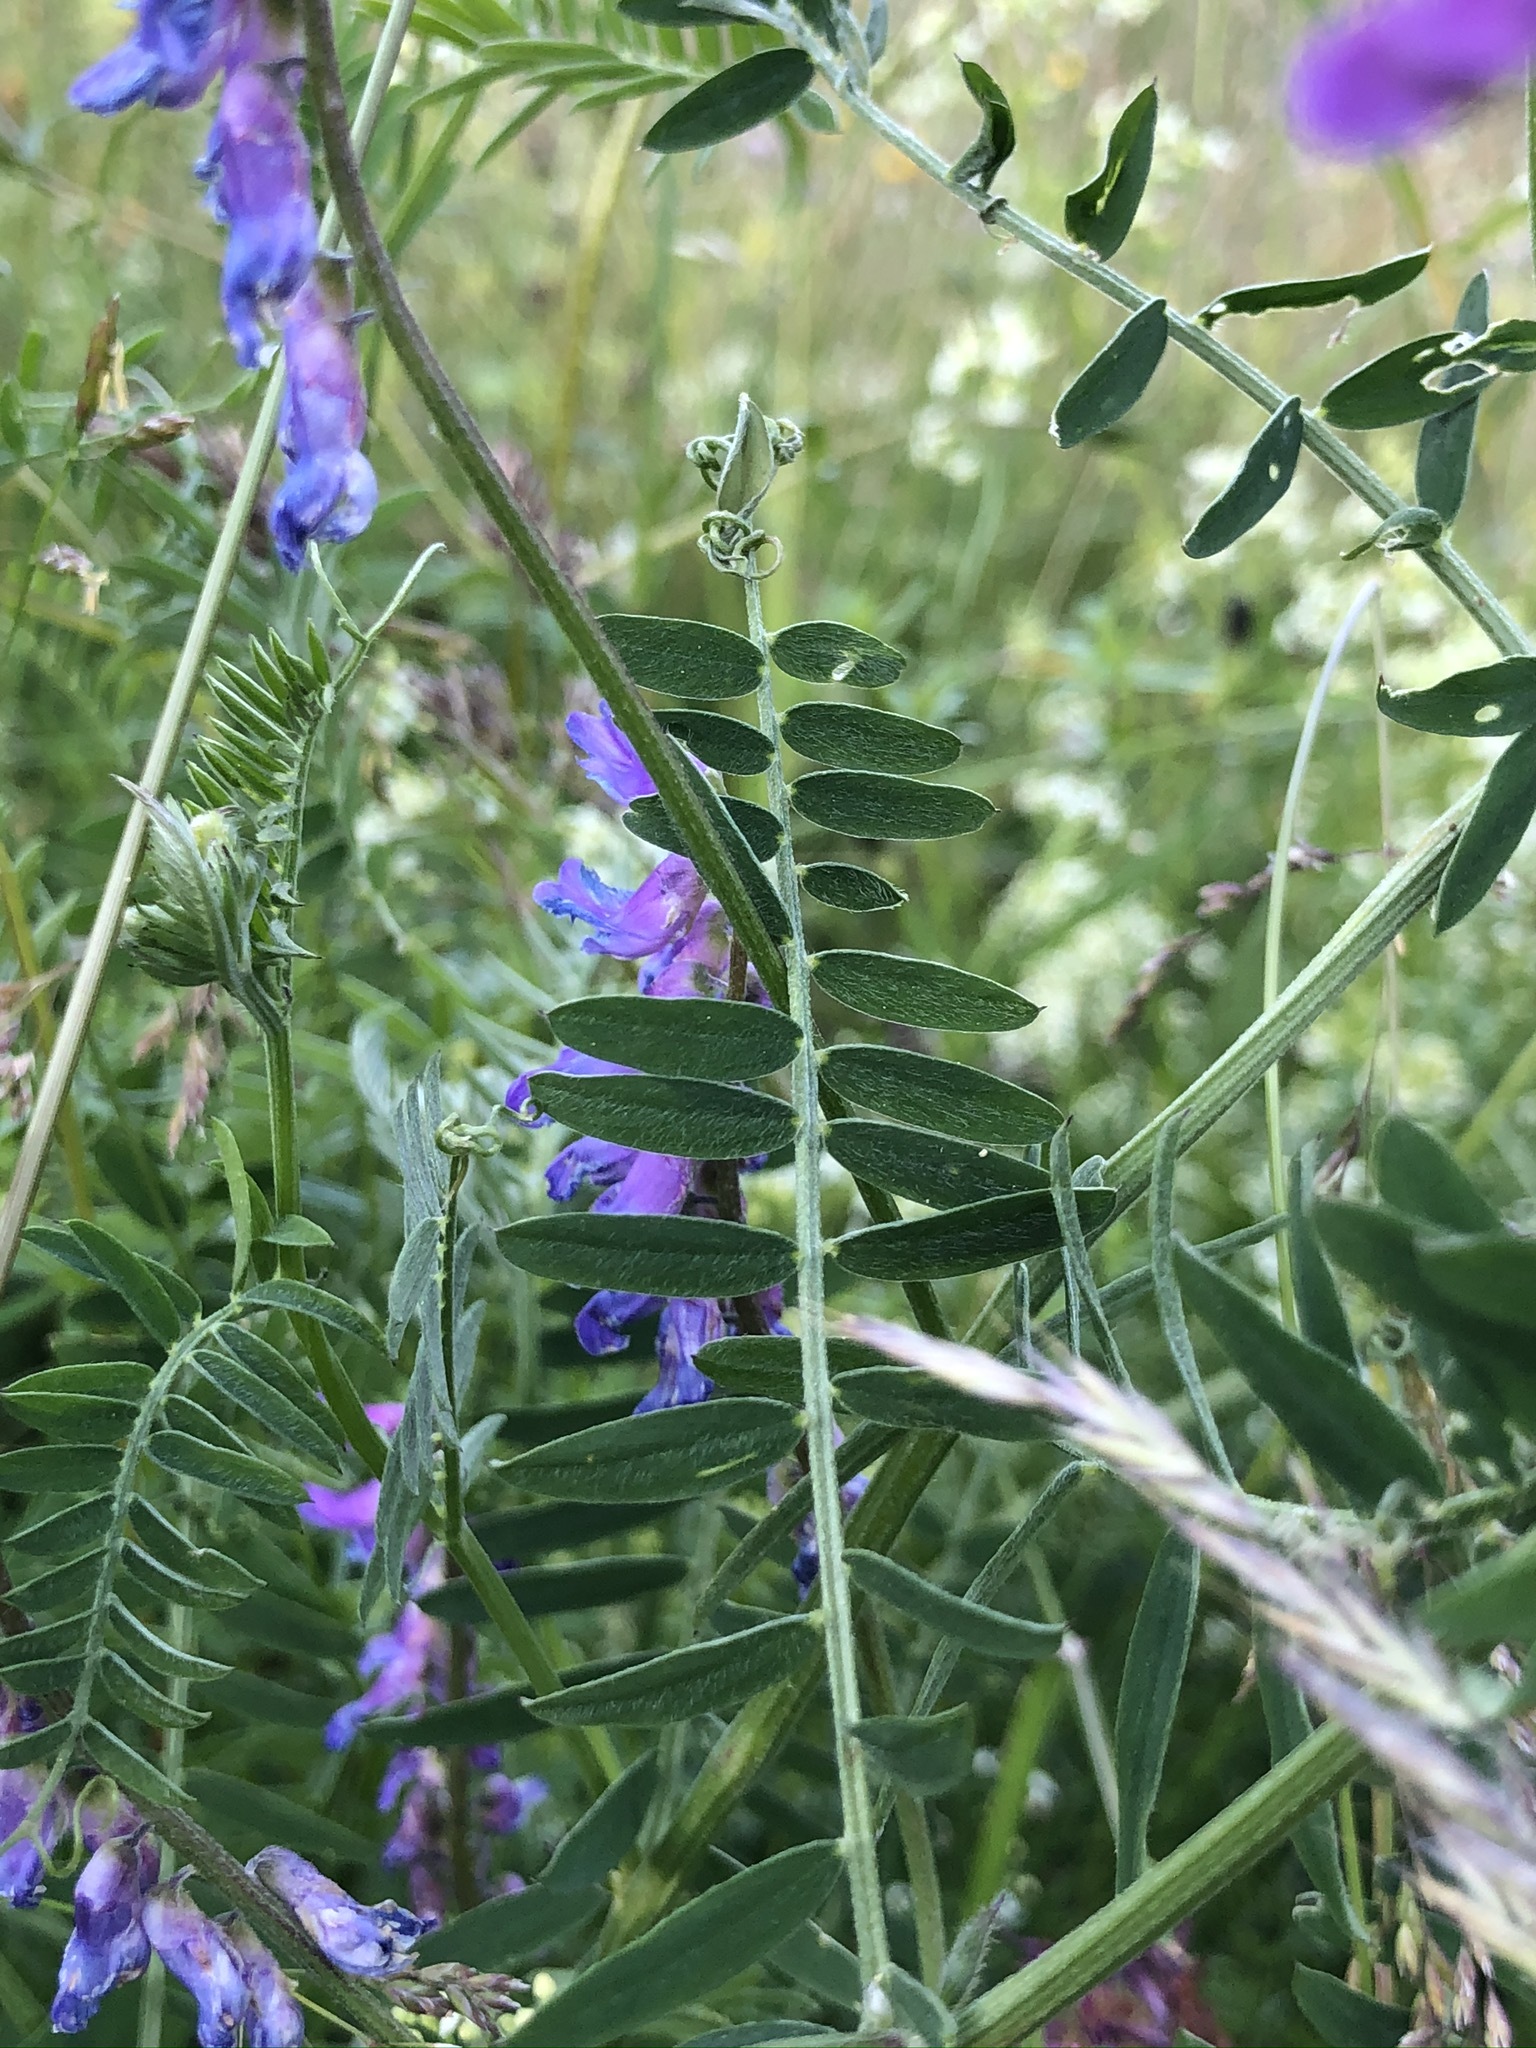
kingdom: Plantae
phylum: Tracheophyta
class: Magnoliopsida
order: Fabales
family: Fabaceae
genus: Vicia
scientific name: Vicia cracca
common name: Bird vetch
